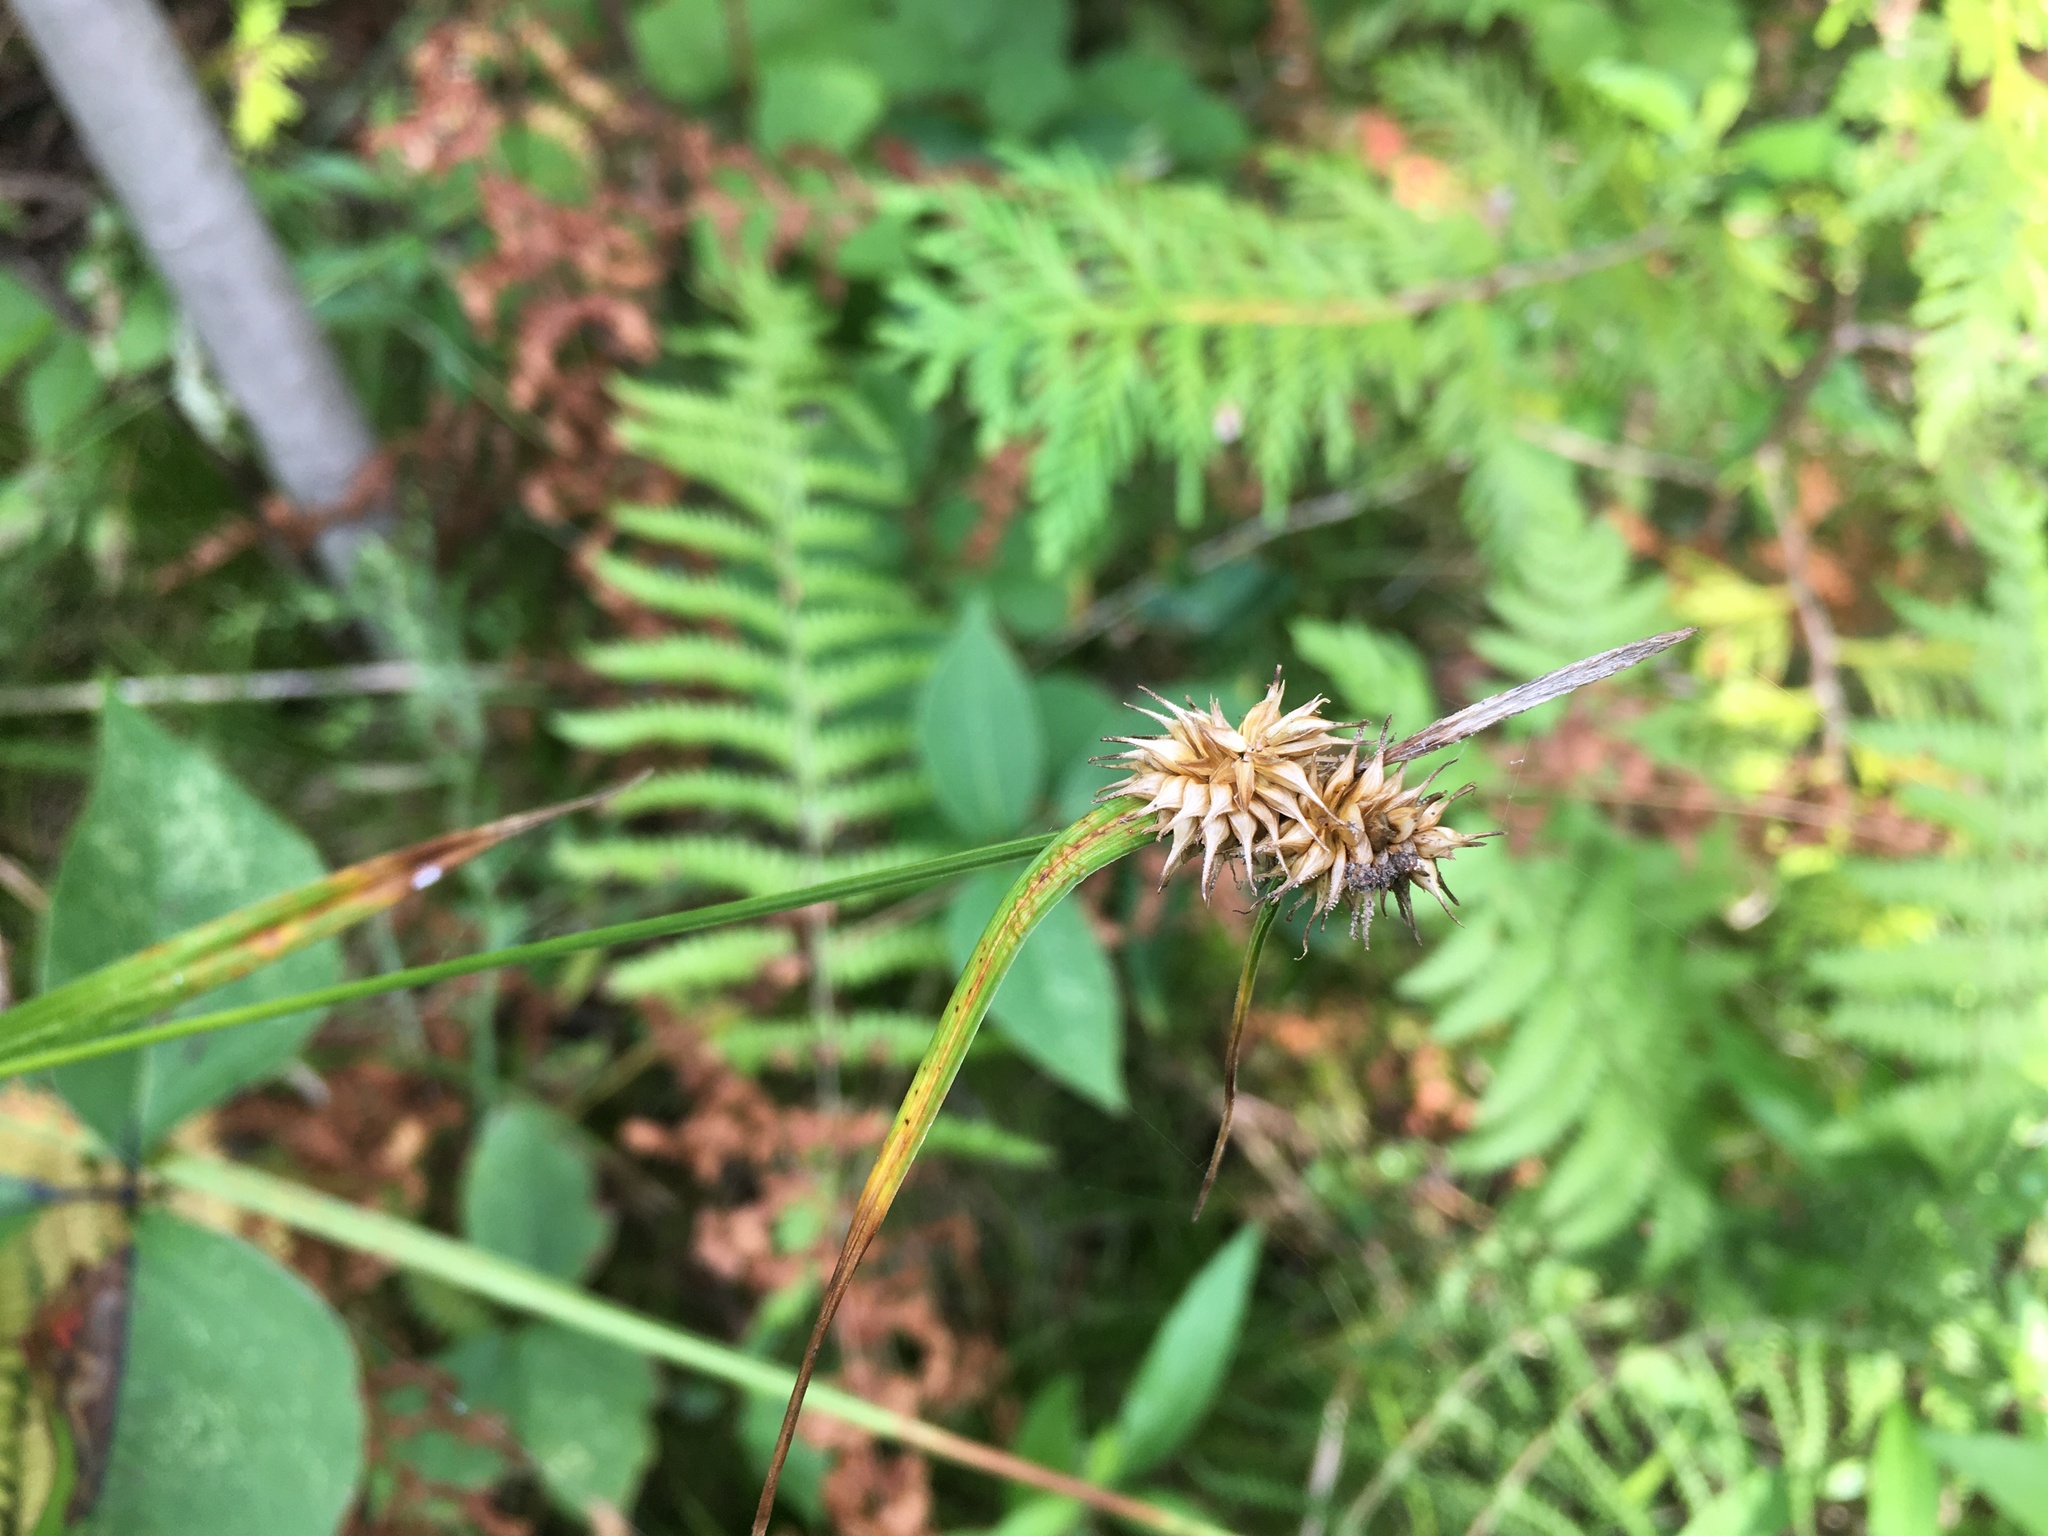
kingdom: Plantae
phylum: Tracheophyta
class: Liliopsida
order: Poales
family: Cyperaceae
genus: Carex
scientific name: Carex flava
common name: Large yellow-sedge
